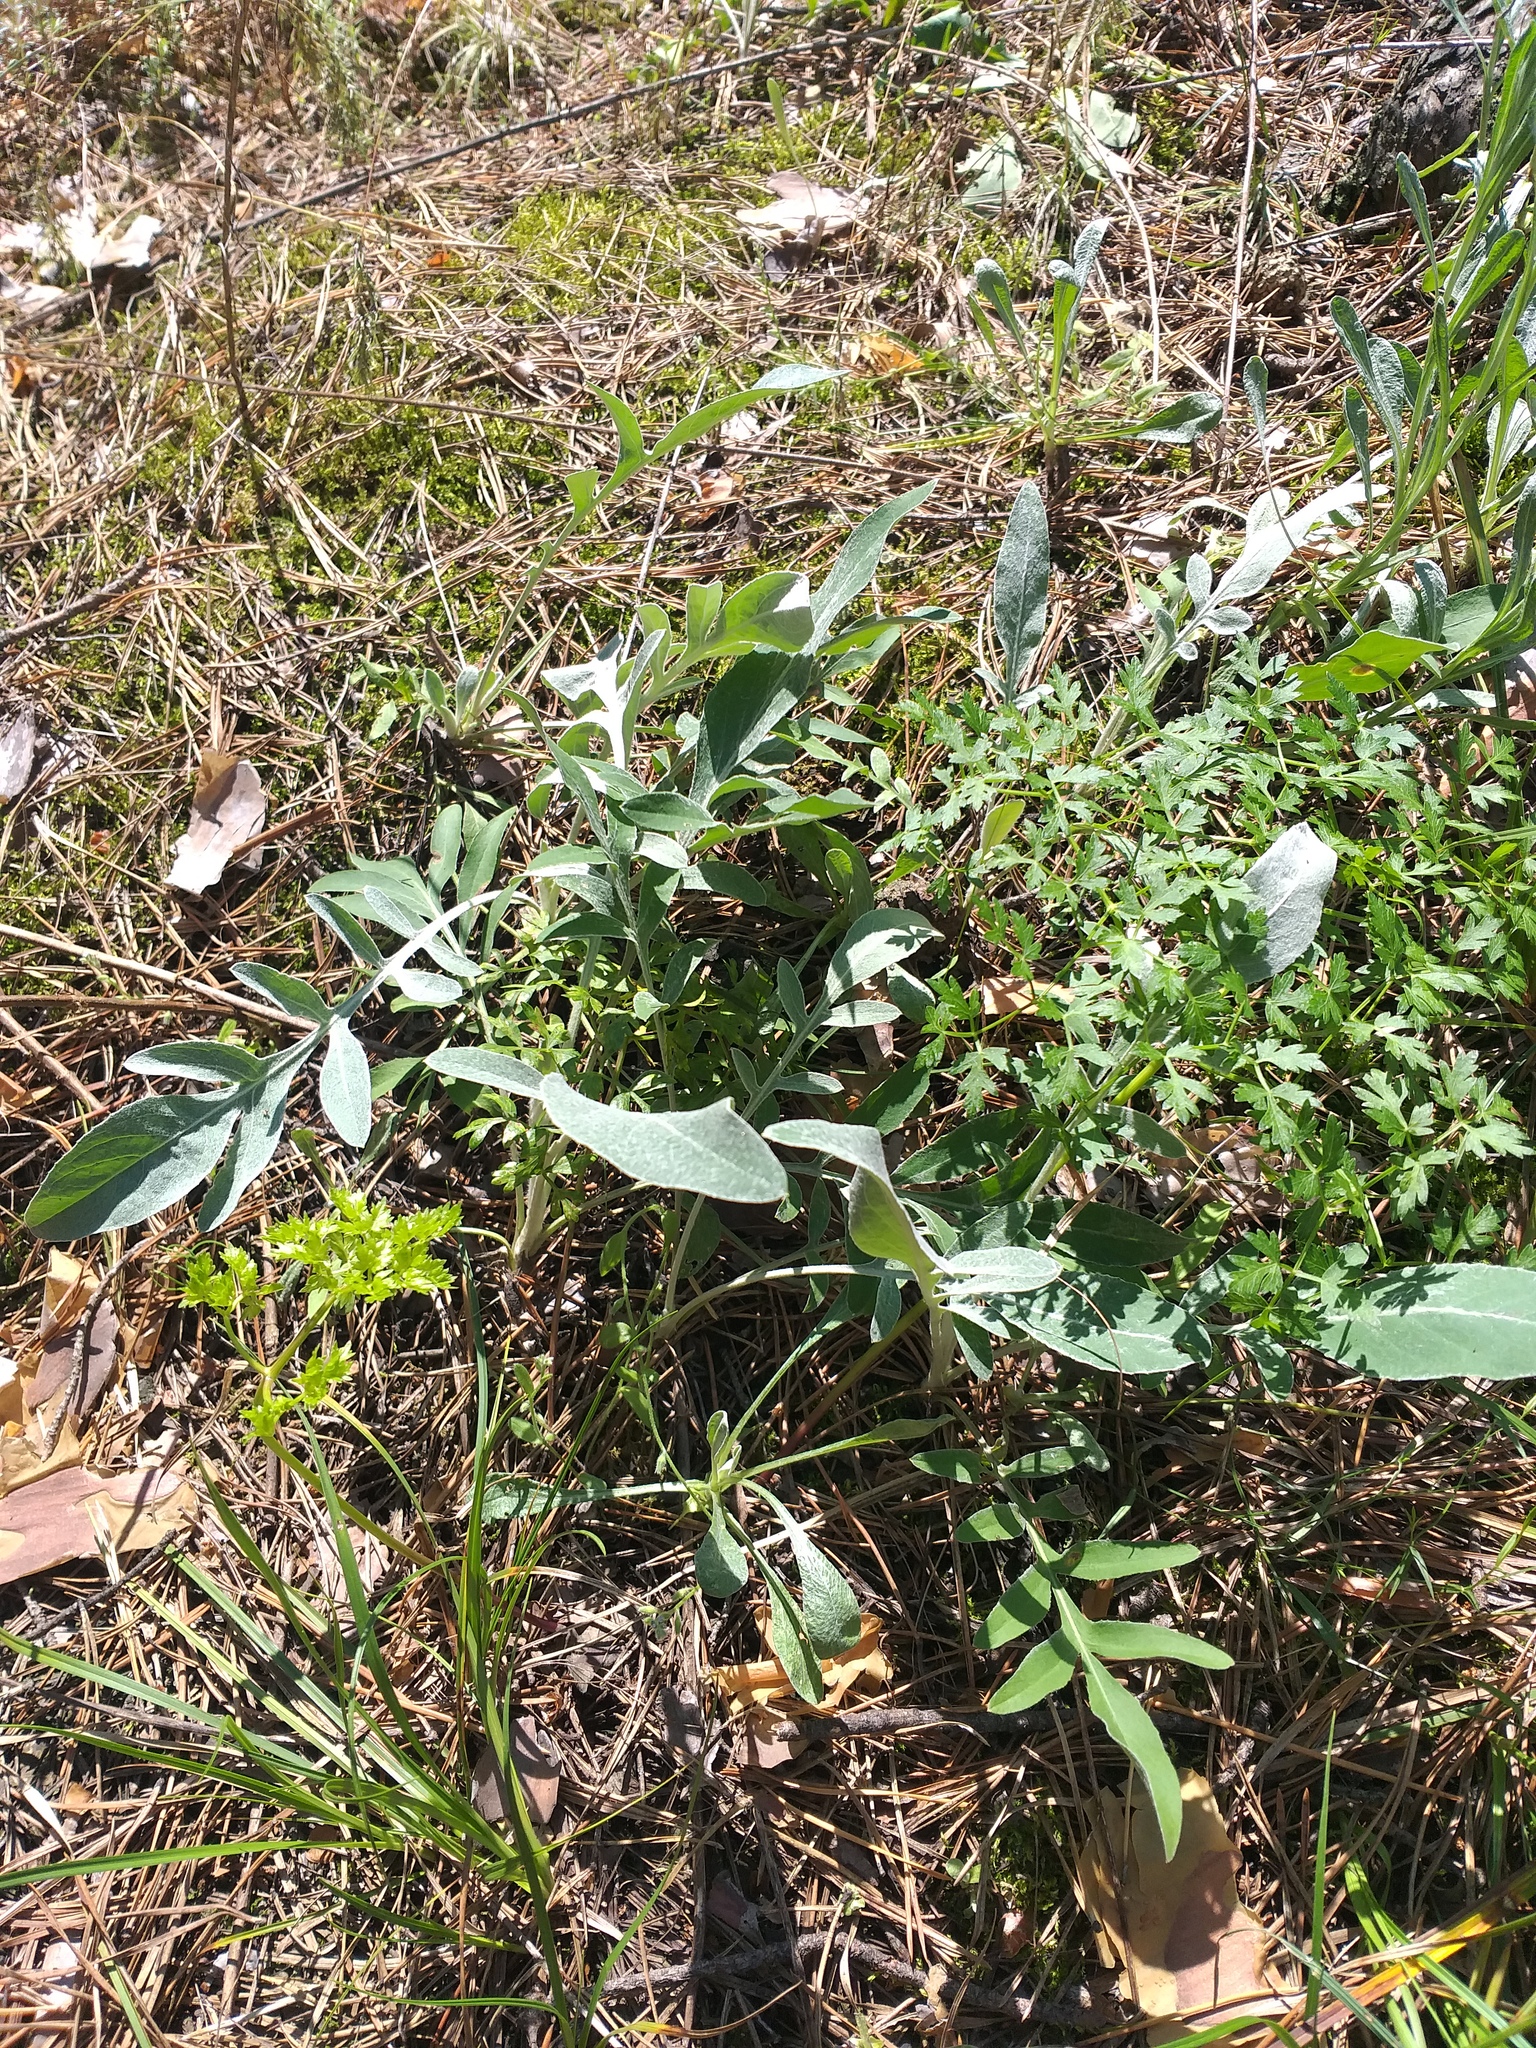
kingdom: Plantae
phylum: Tracheophyta
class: Magnoliopsida
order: Asterales
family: Asteraceae
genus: Psephellus
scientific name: Psephellus marschallianus
